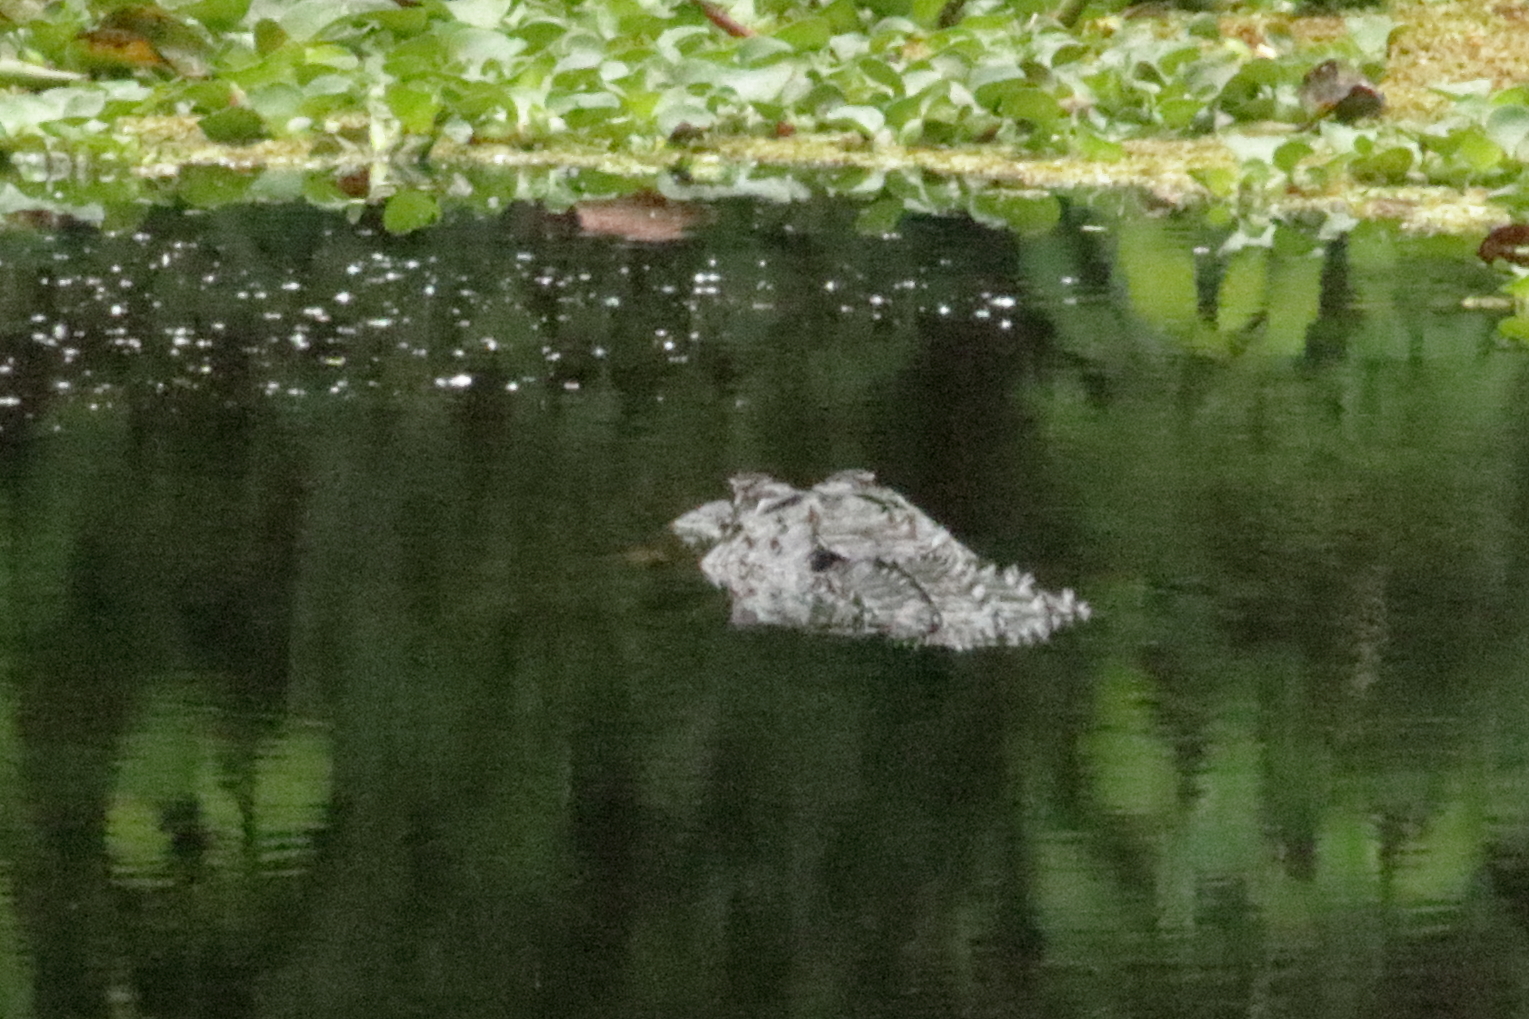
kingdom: Animalia
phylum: Chordata
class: Crocodylia
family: Alligatoridae
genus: Alligator
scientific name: Alligator mississippiensis
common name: American alligator
